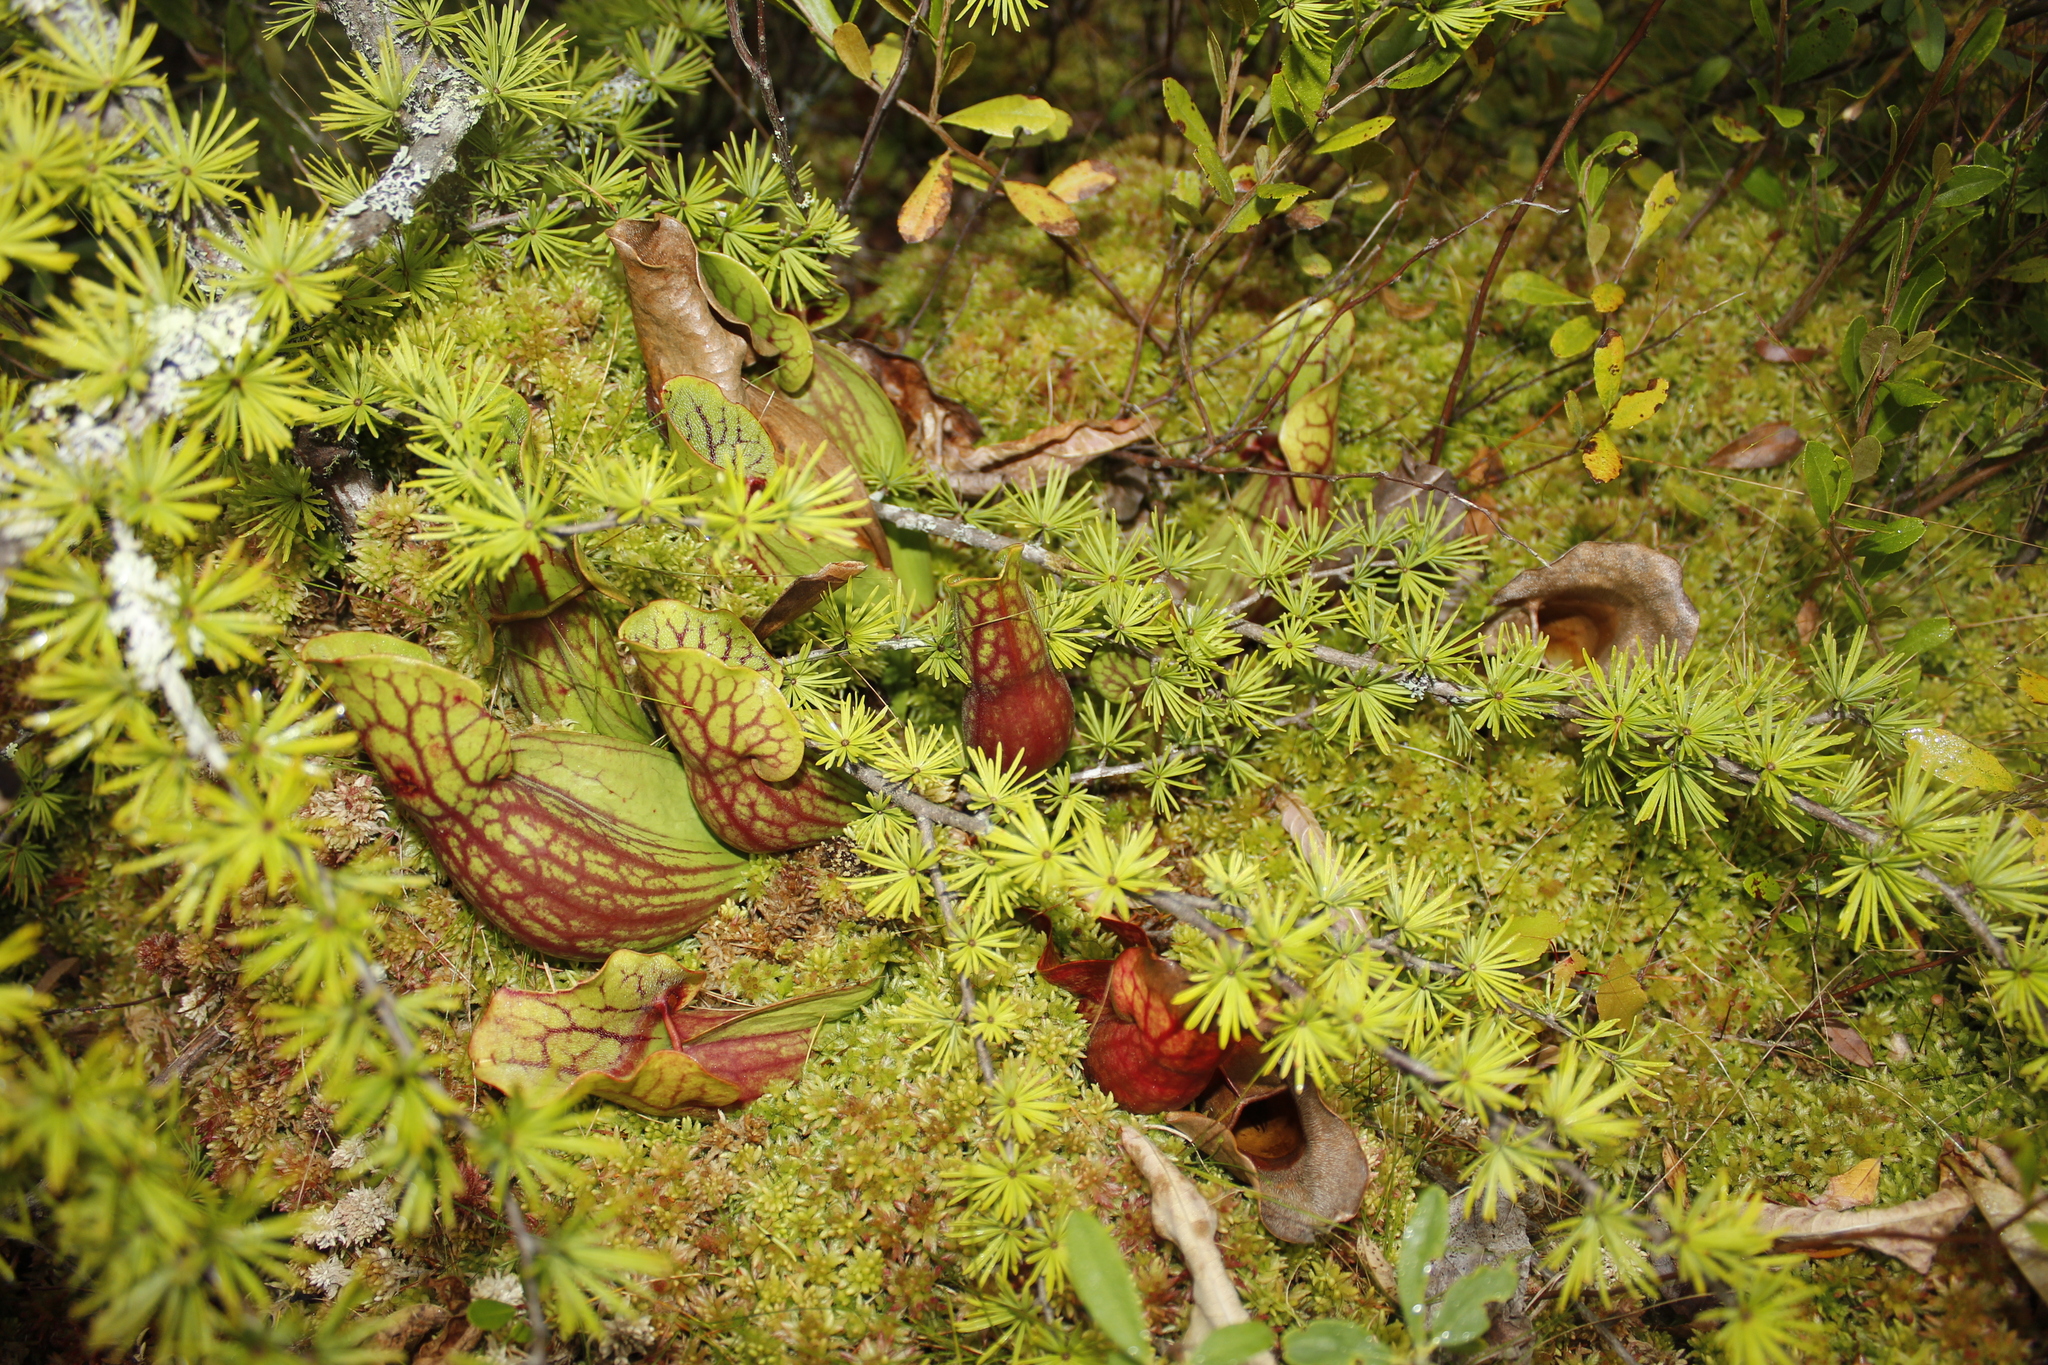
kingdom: Plantae
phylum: Tracheophyta
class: Magnoliopsida
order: Ericales
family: Sarraceniaceae
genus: Sarracenia
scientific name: Sarracenia purpurea
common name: Pitcherplant
